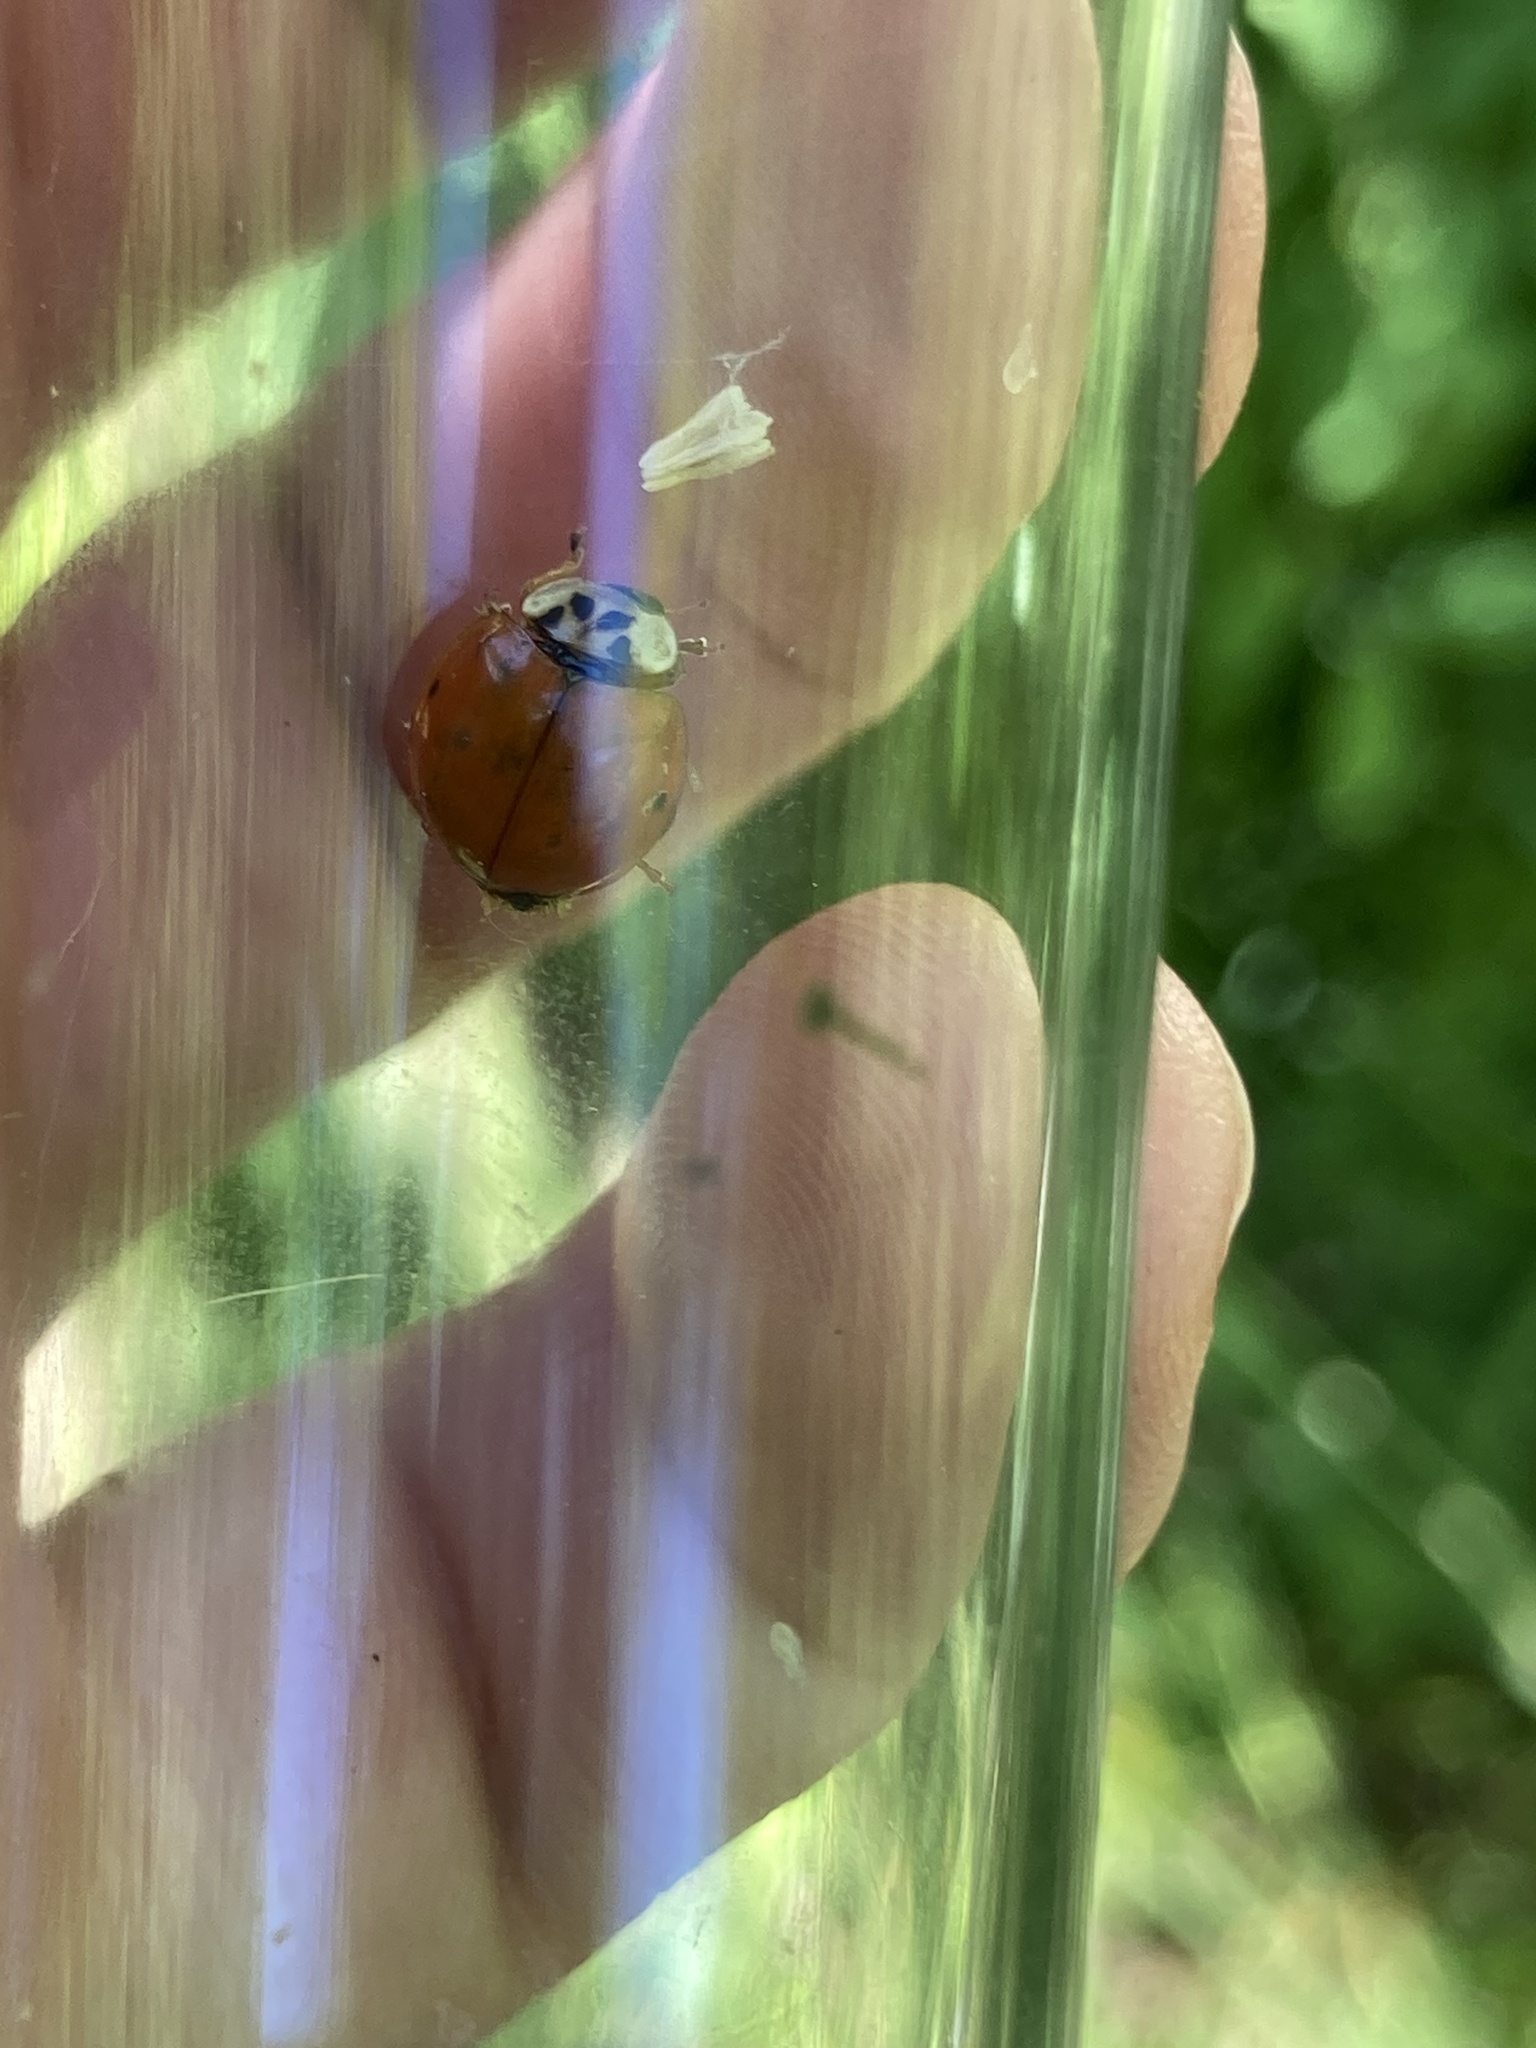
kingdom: Animalia
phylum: Arthropoda
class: Insecta
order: Coleoptera
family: Coccinellidae
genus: Harmonia
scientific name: Harmonia axyridis
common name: Harlequin ladybird
